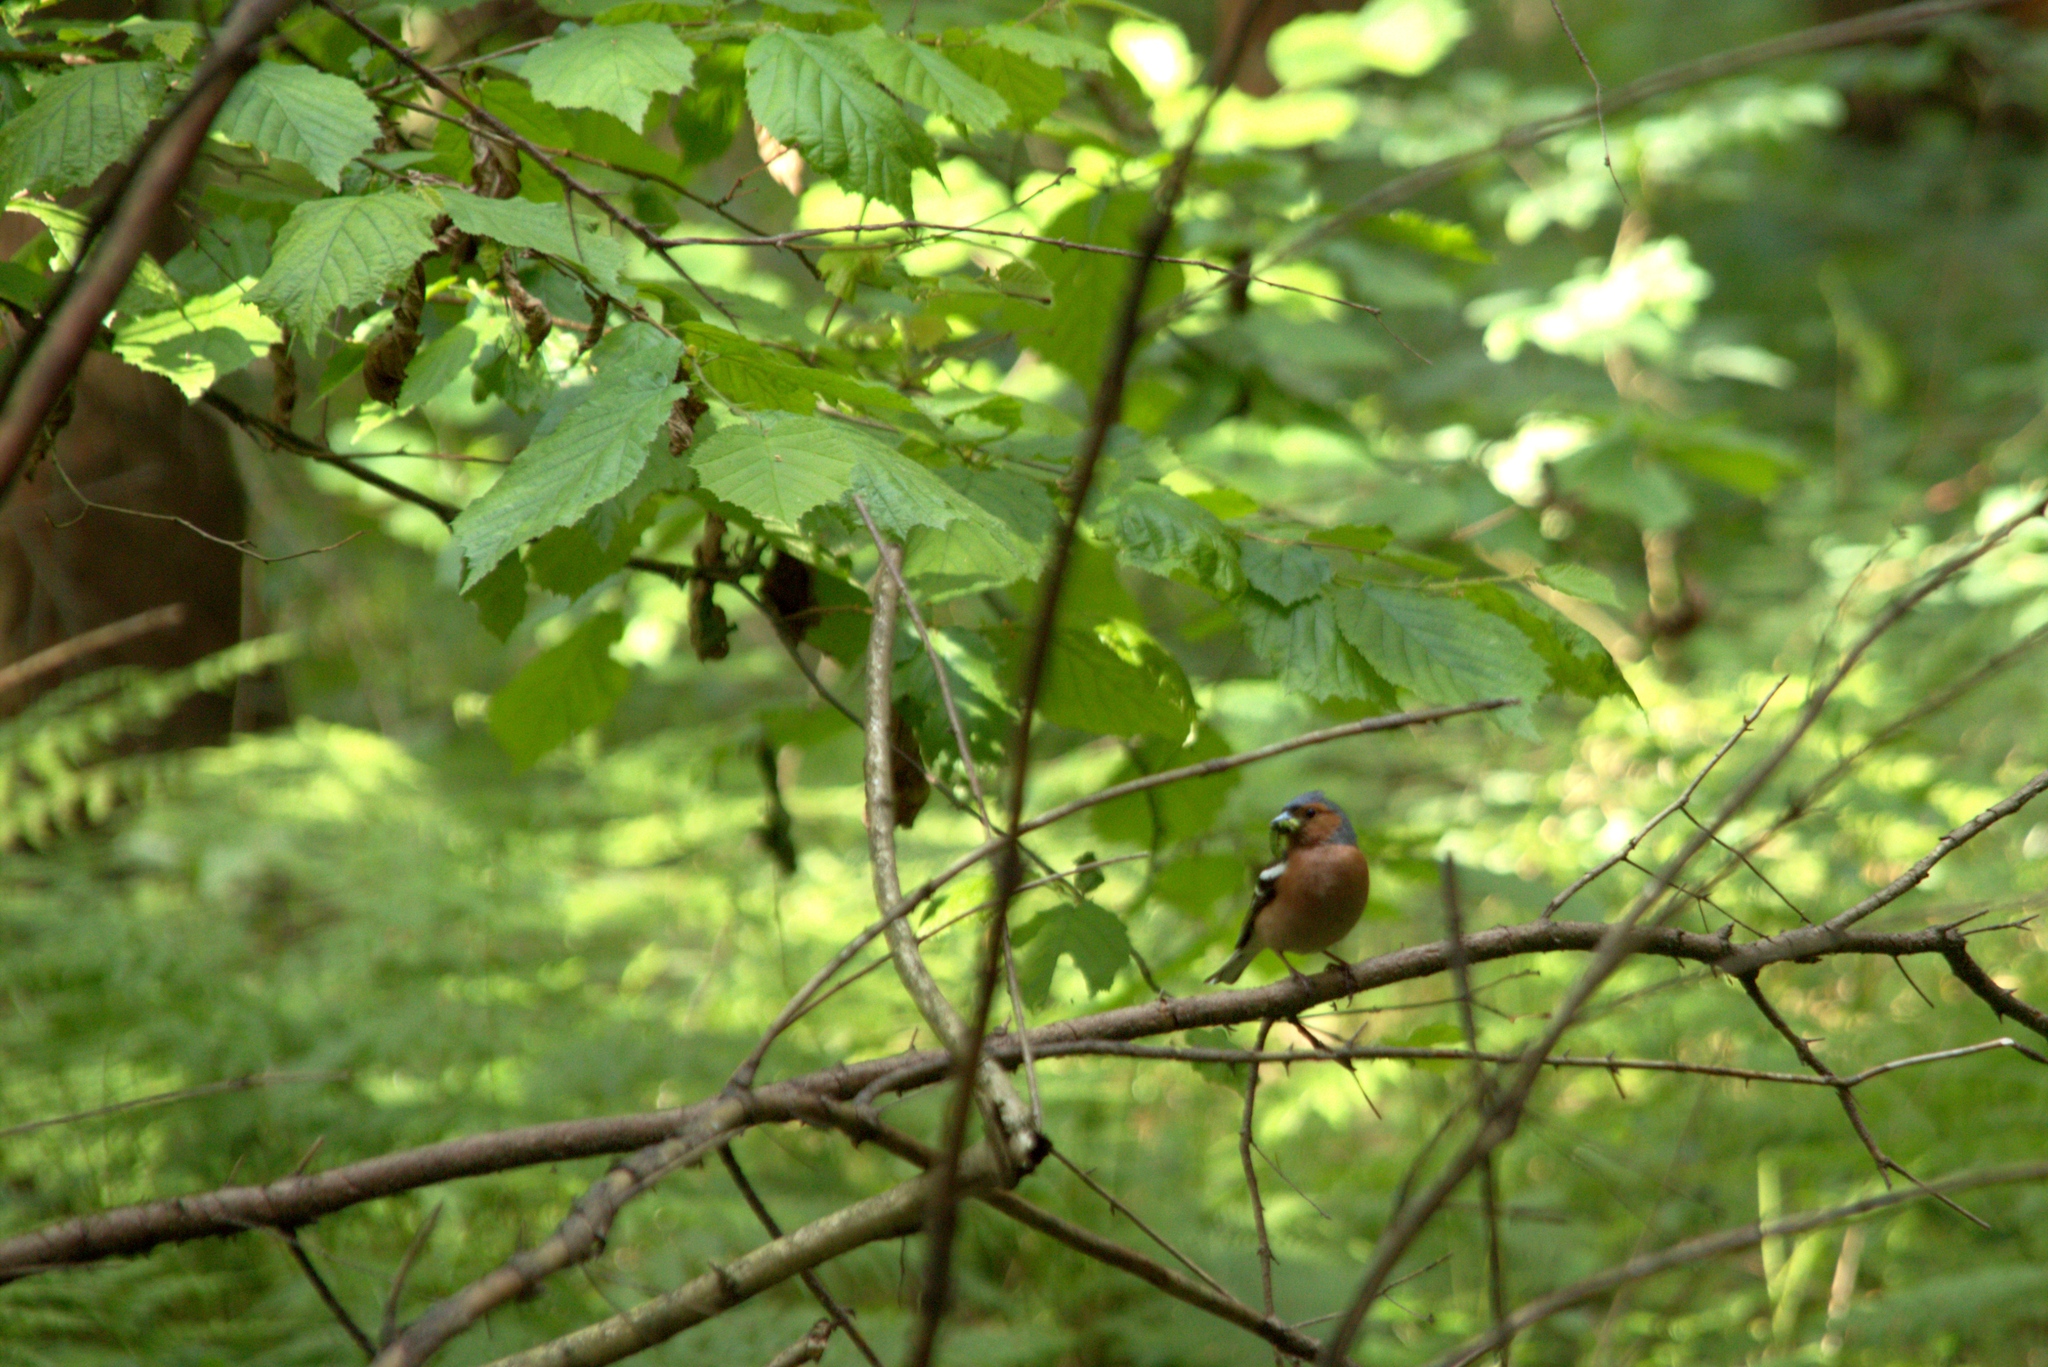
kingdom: Animalia
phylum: Chordata
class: Aves
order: Passeriformes
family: Fringillidae
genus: Fringilla
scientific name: Fringilla coelebs
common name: Common chaffinch
